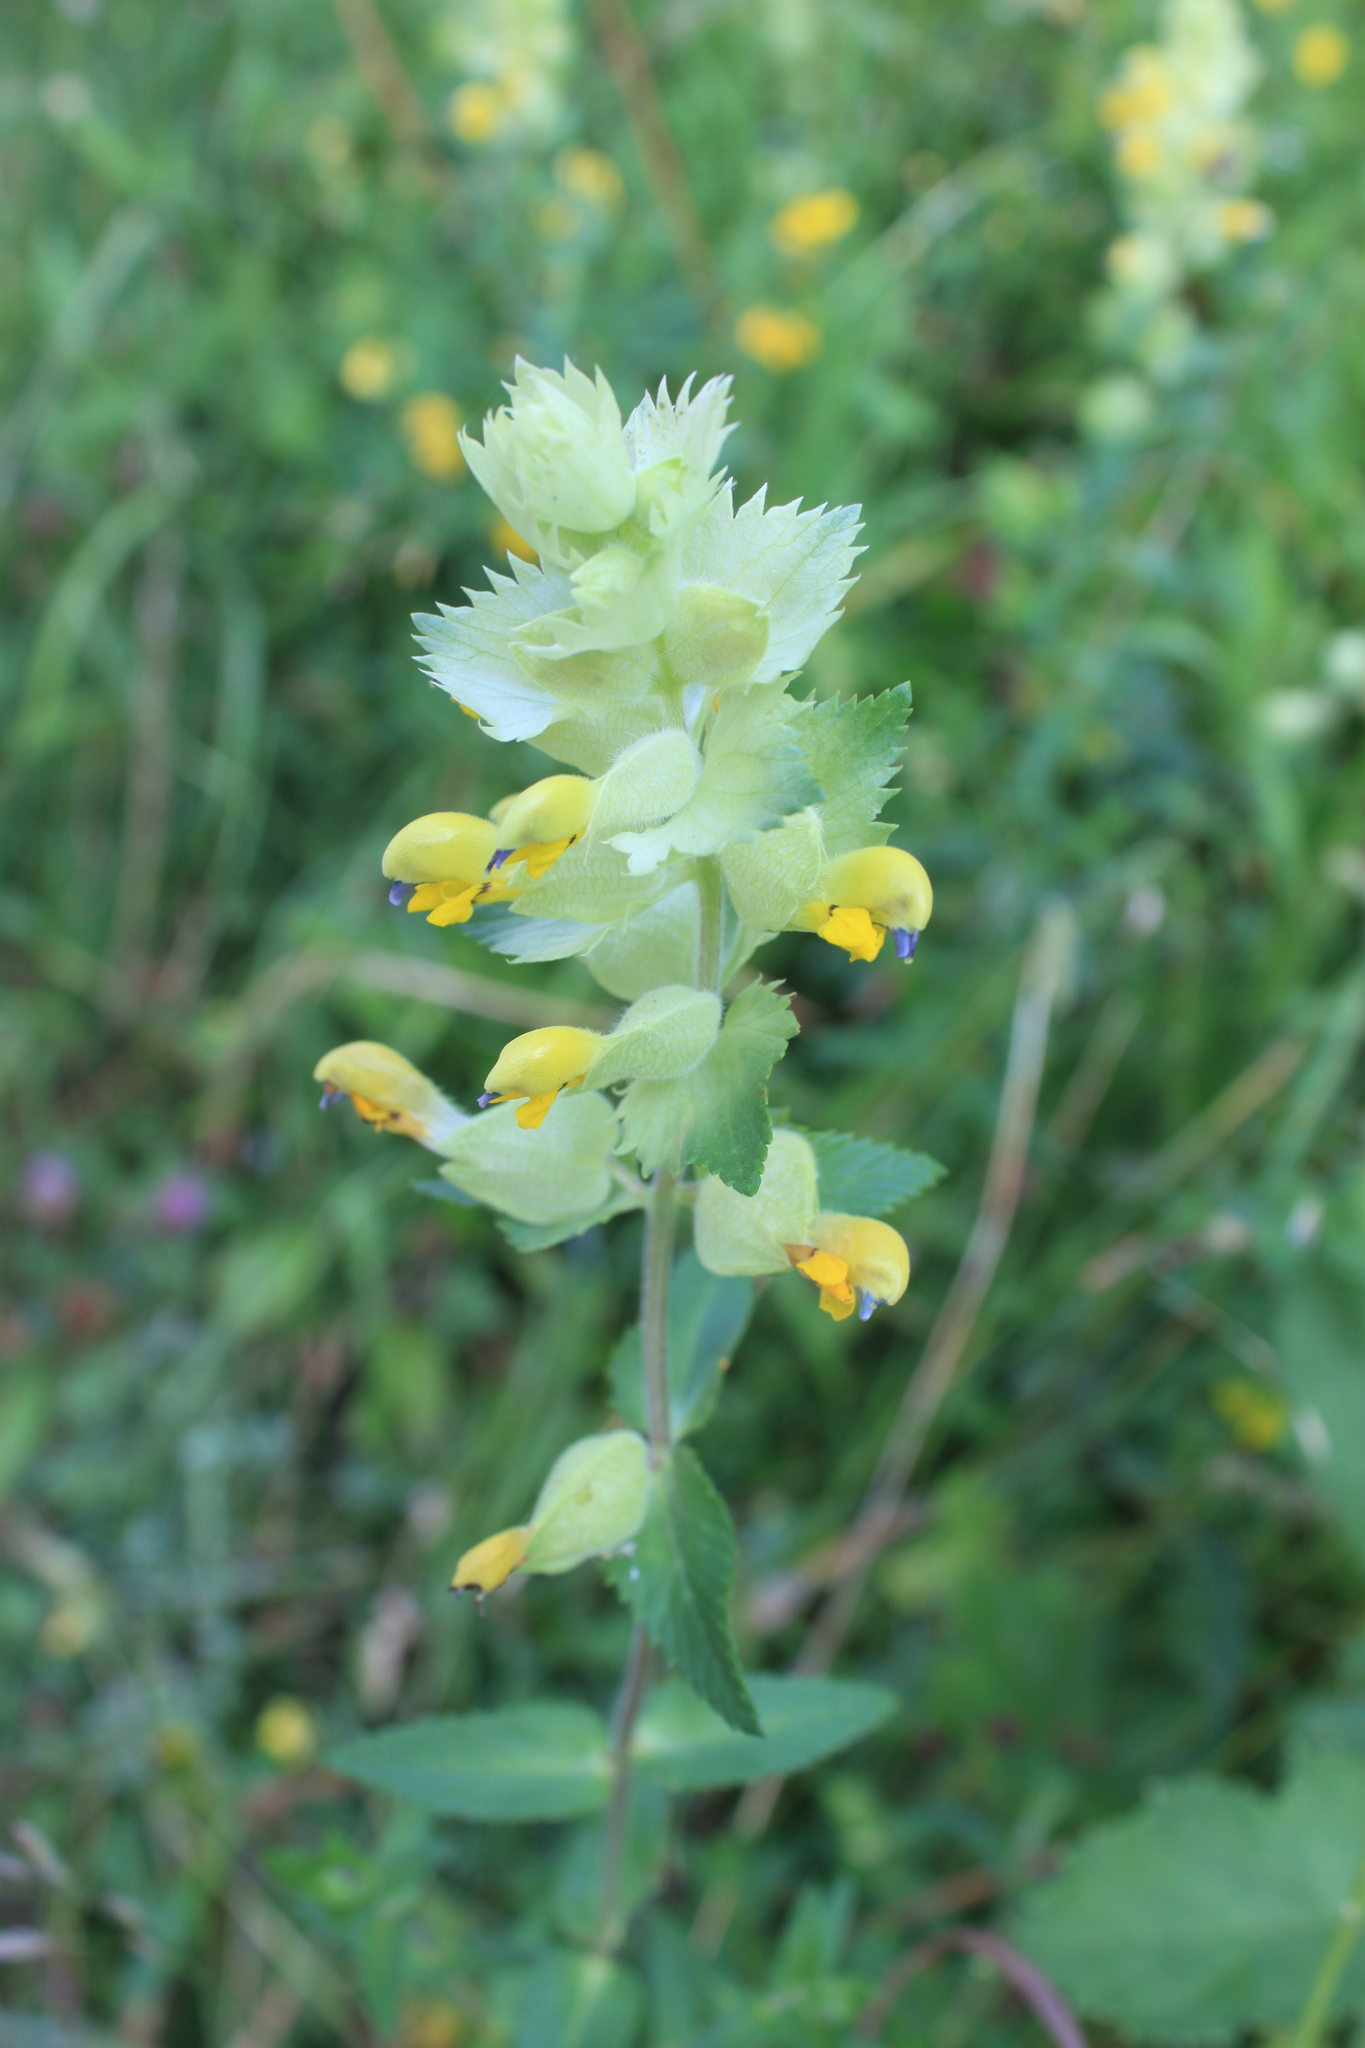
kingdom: Plantae
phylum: Tracheophyta
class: Magnoliopsida
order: Lamiales
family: Orobanchaceae
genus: Rhinanthus
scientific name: Rhinanthus alectorolophus
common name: Greater yellow-rattle
